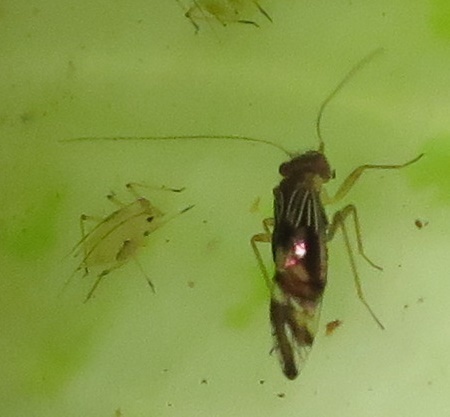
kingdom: Animalia
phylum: Arthropoda
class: Insecta
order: Psocodea
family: Elipsocidae
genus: Pentacladus
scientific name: Pentacladus eucalypti
